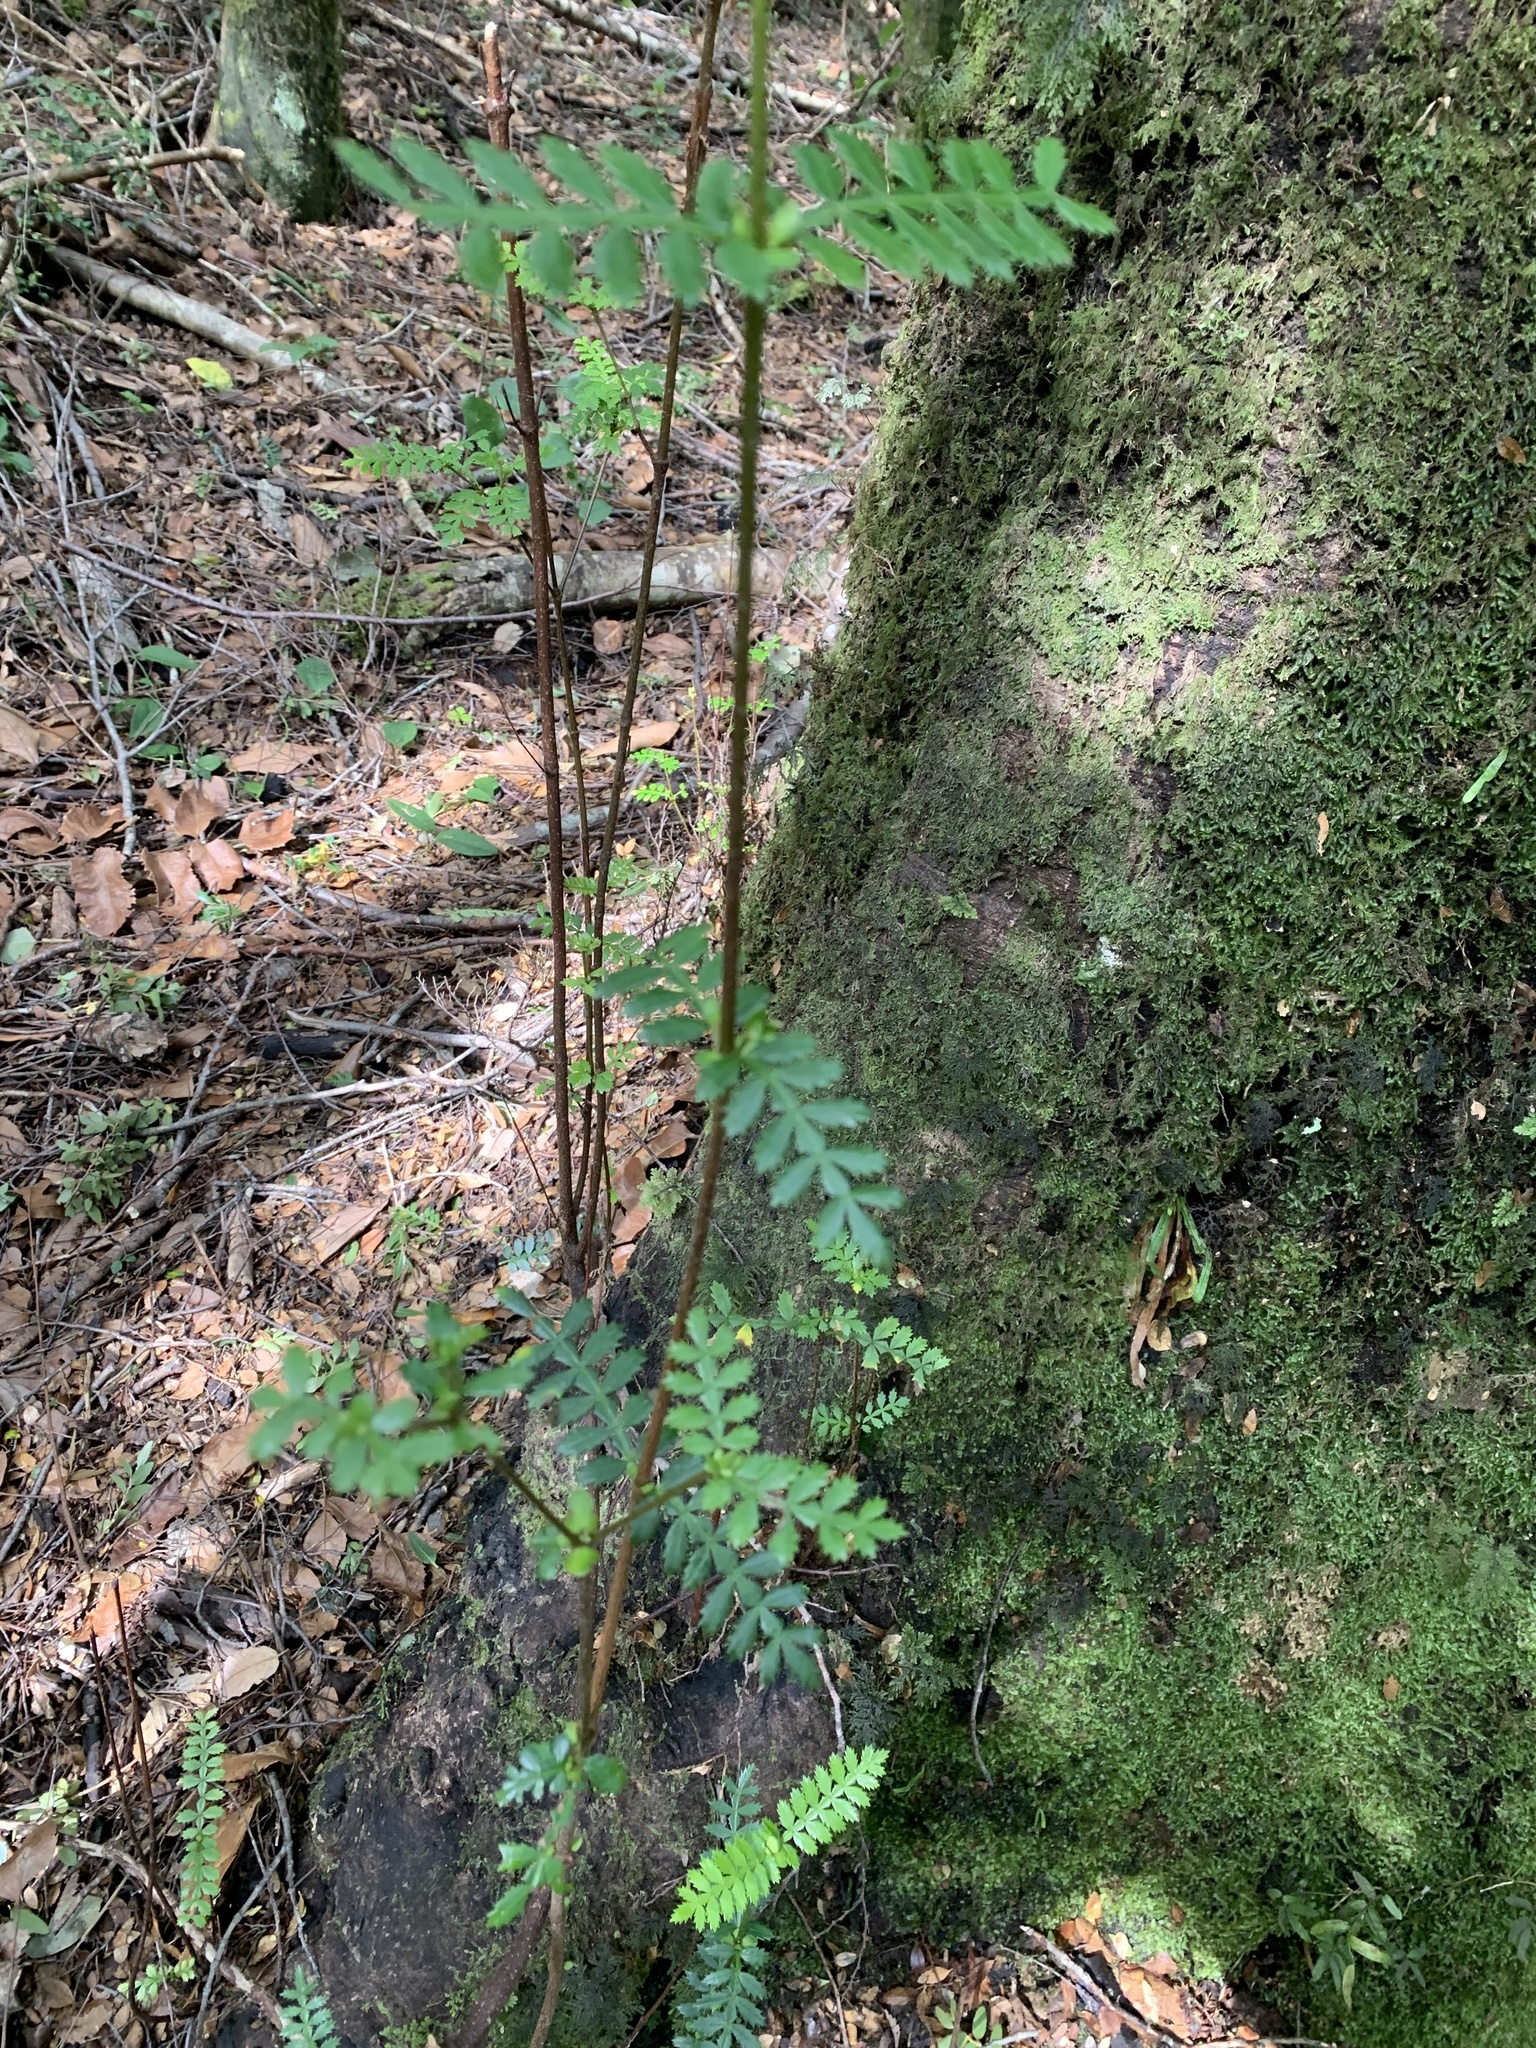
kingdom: Plantae
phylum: Tracheophyta
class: Magnoliopsida
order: Oxalidales
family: Cunoniaceae
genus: Weinmannia
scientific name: Weinmannia trichosperma
